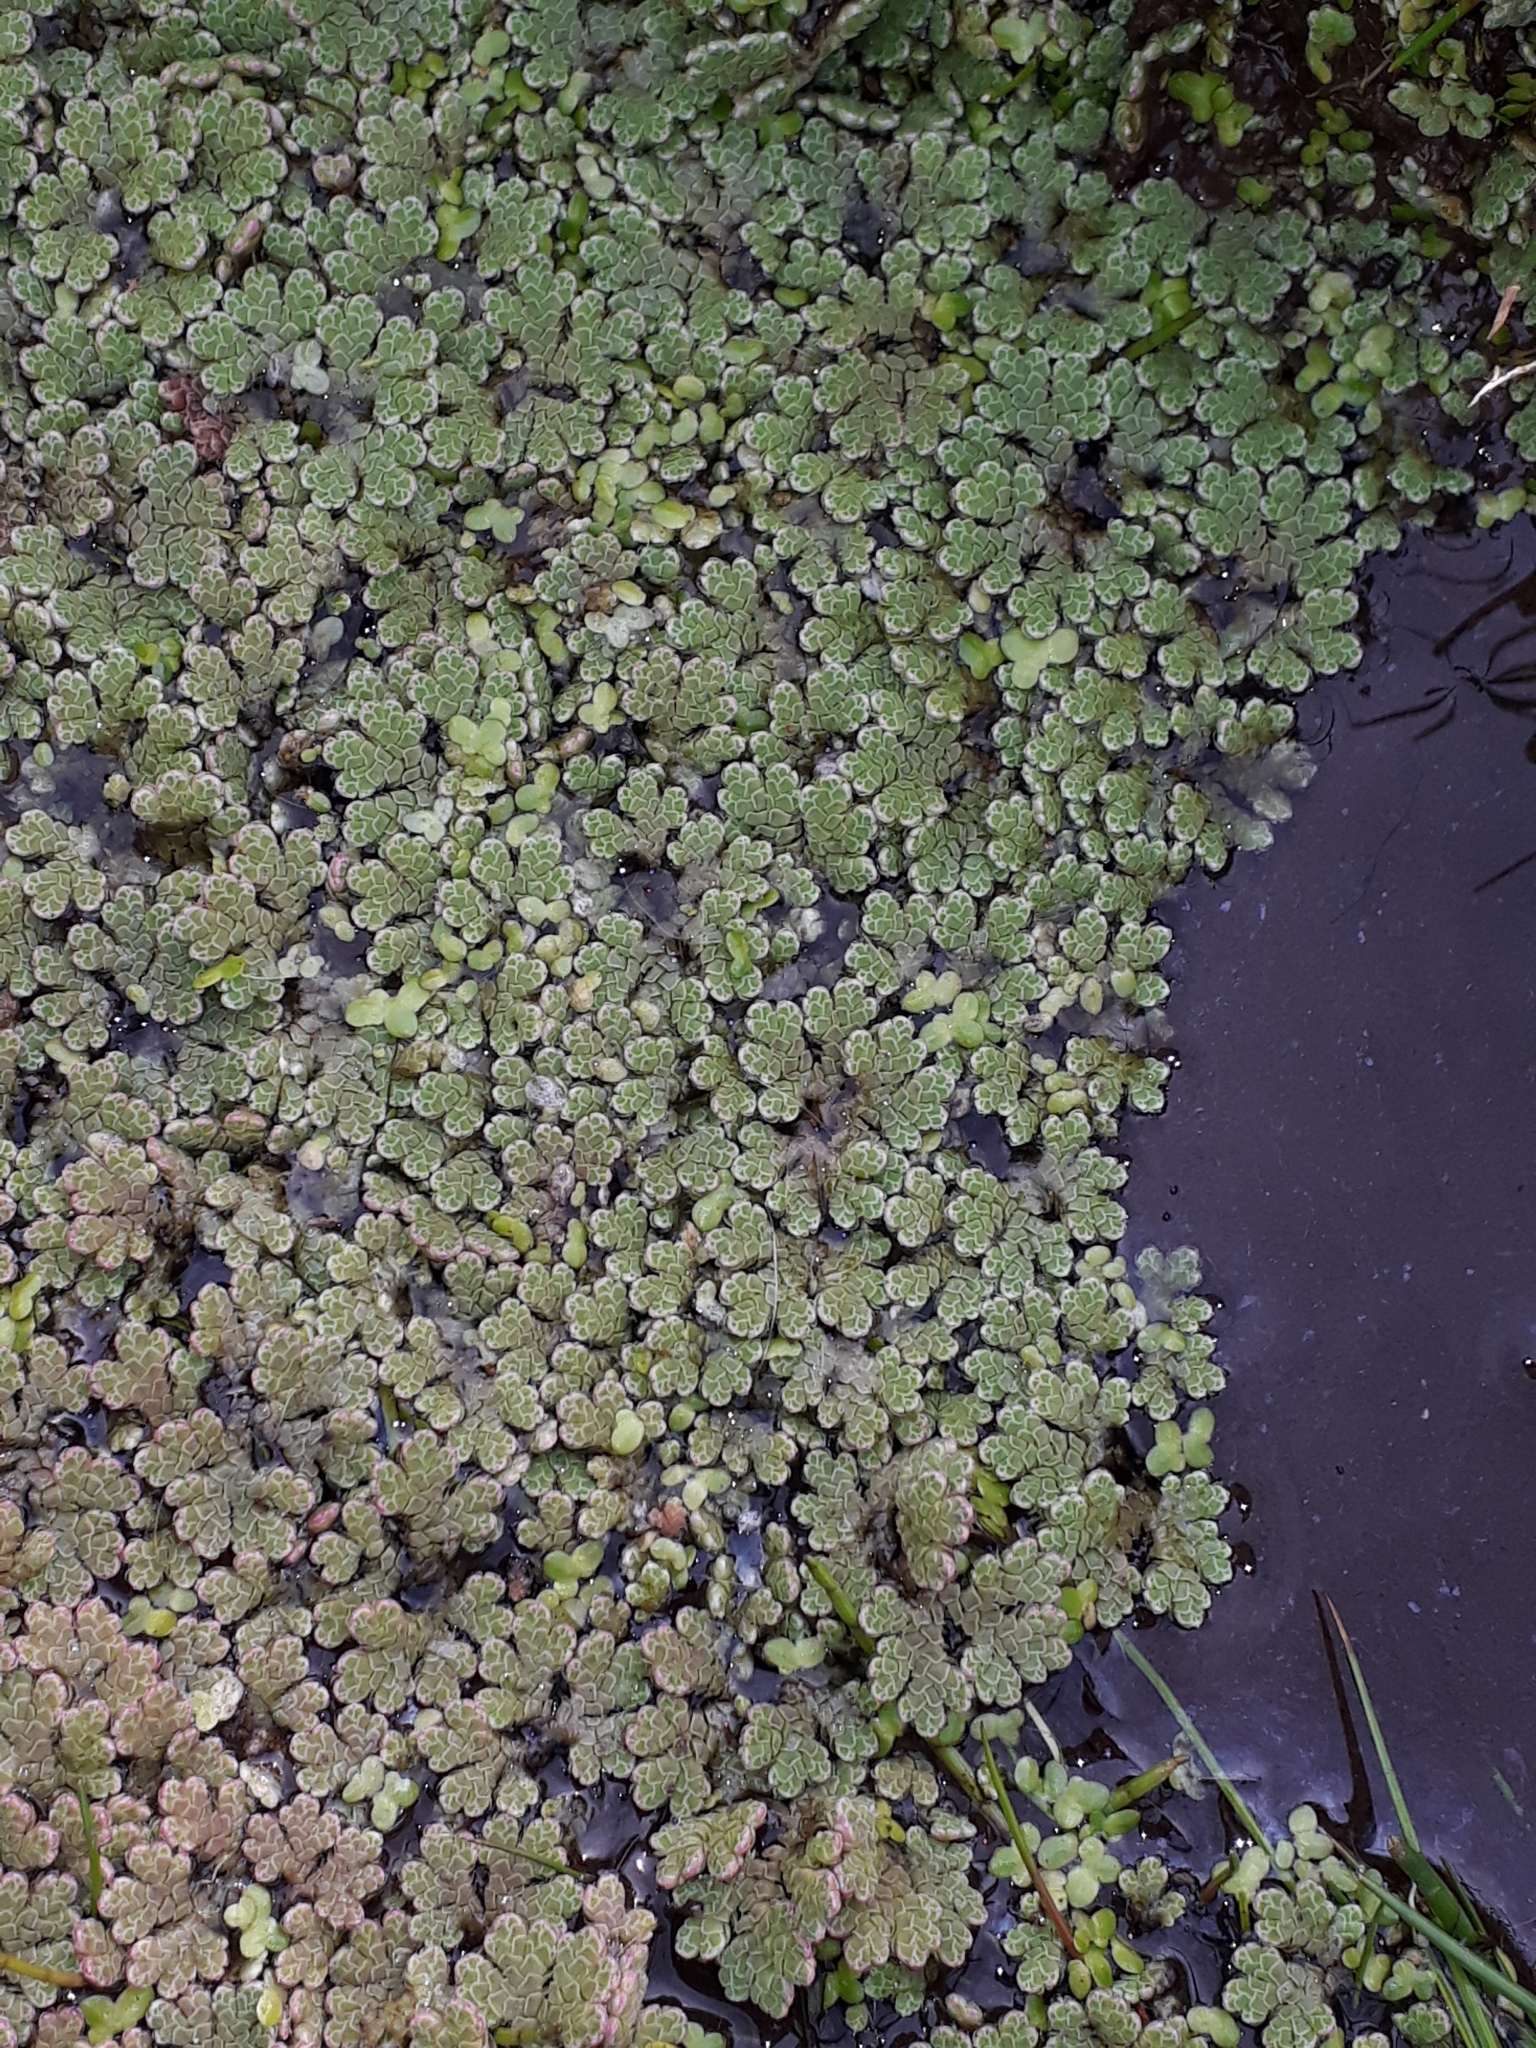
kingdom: Plantae
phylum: Tracheophyta
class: Polypodiopsida
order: Salviniales
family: Salviniaceae
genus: Azolla
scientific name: Azolla rubra
